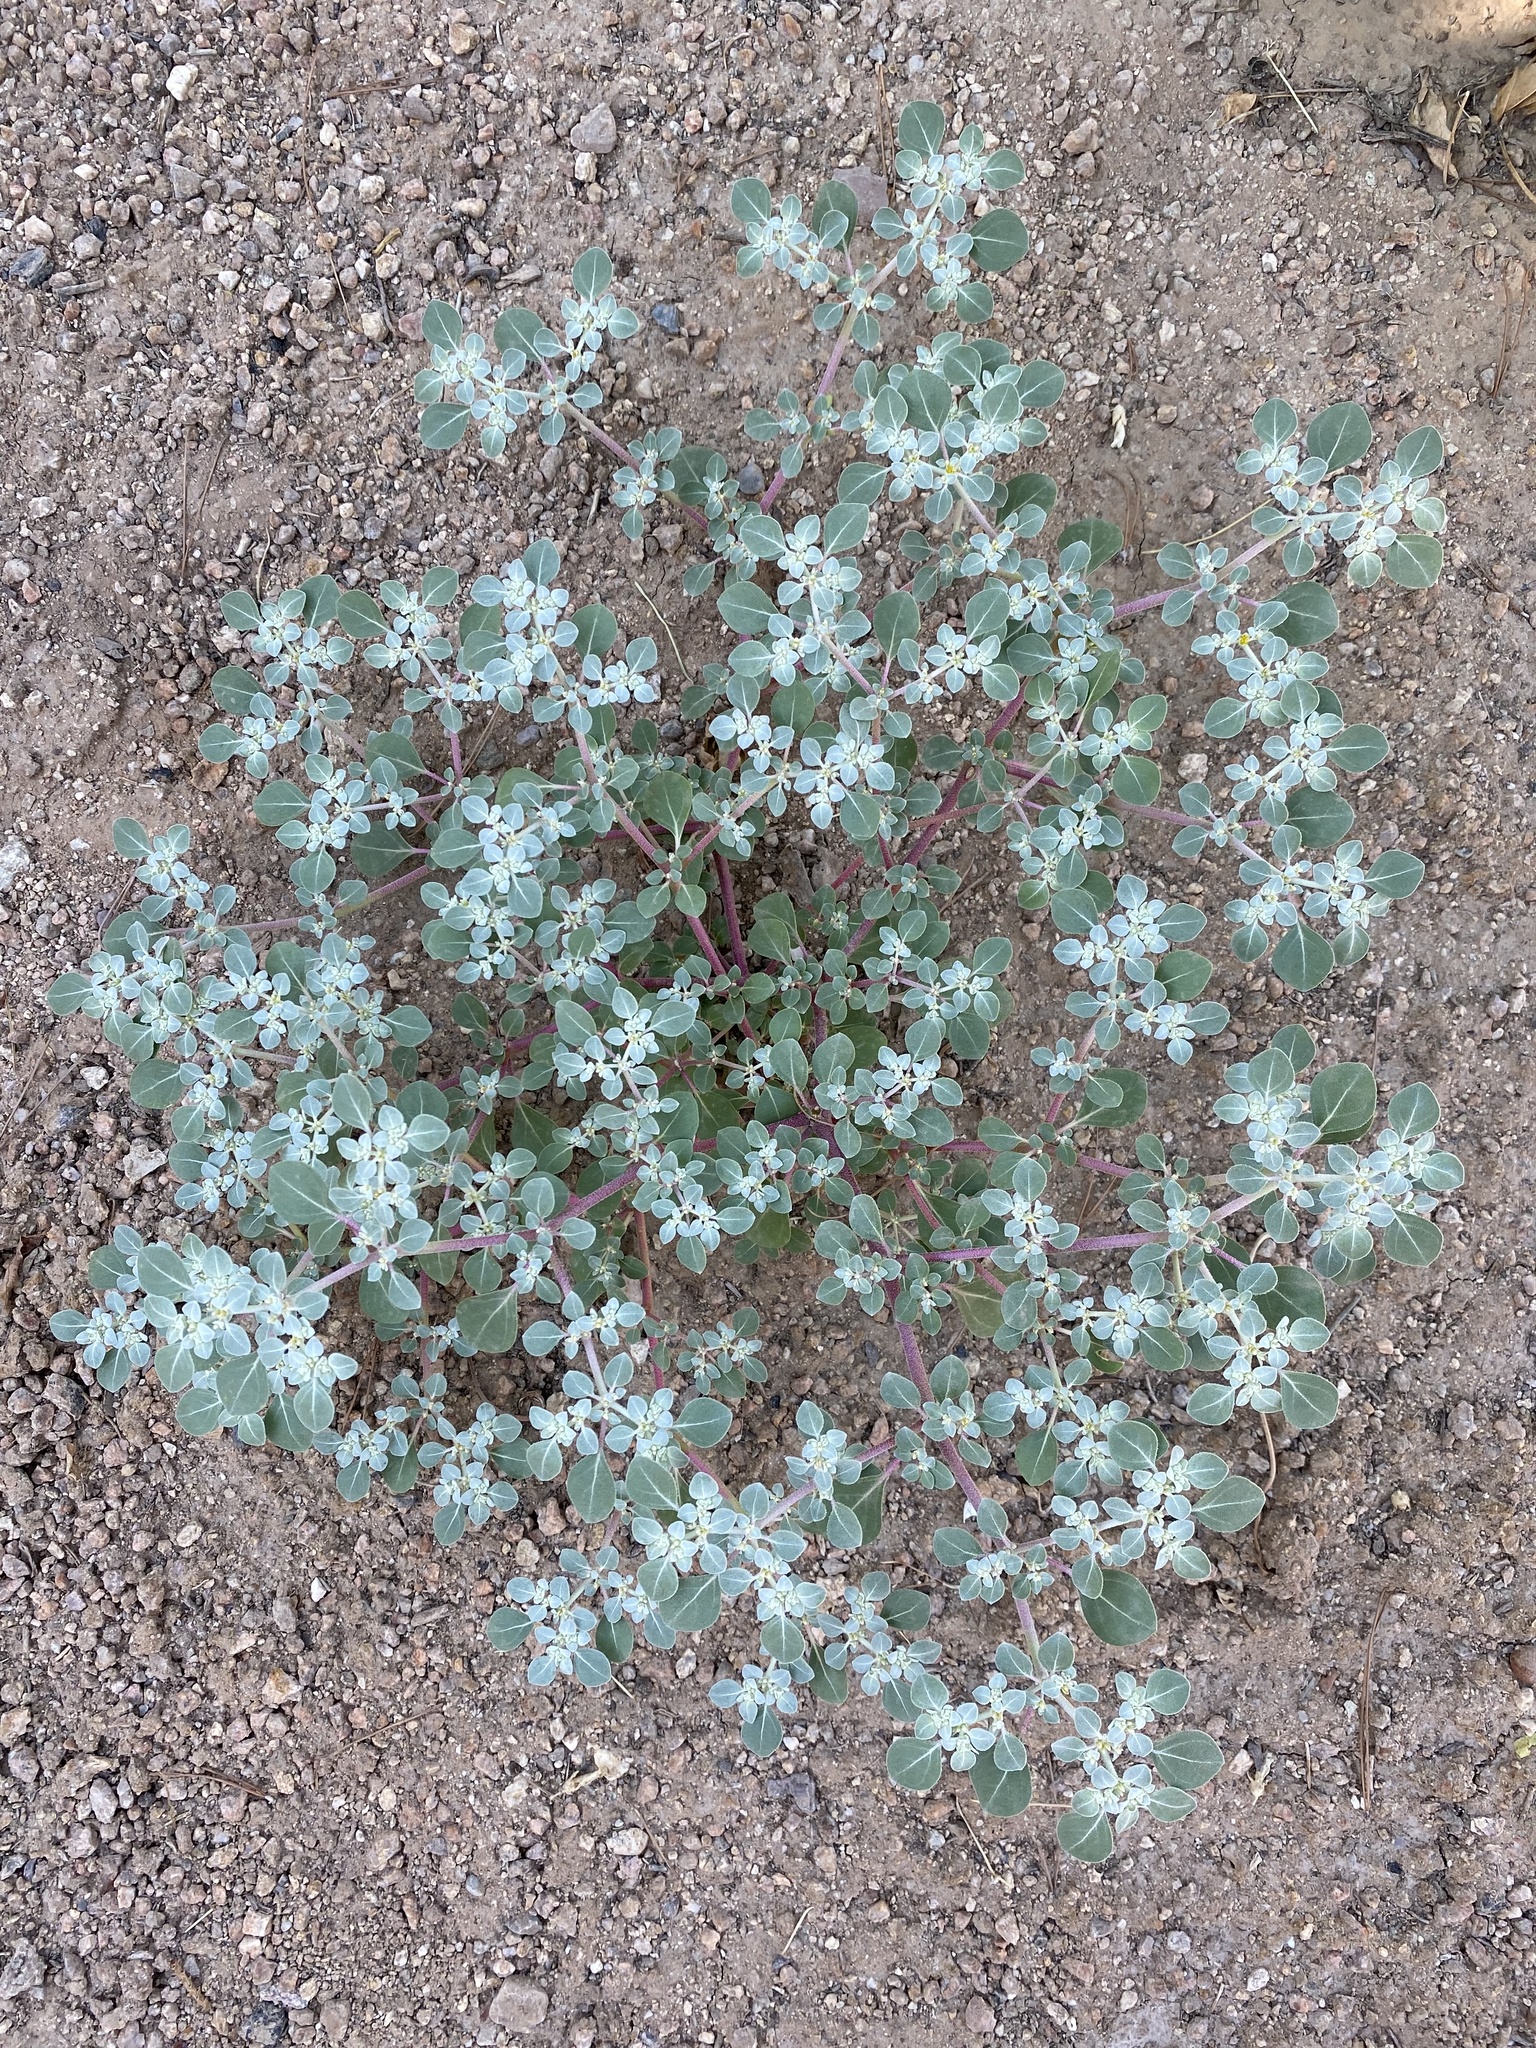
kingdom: Plantae
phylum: Tracheophyta
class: Magnoliopsida
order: Caryophyllales
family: Amaranthaceae
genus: Tidestromia
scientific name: Tidestromia lanuginosa
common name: Woolly tidestromia
